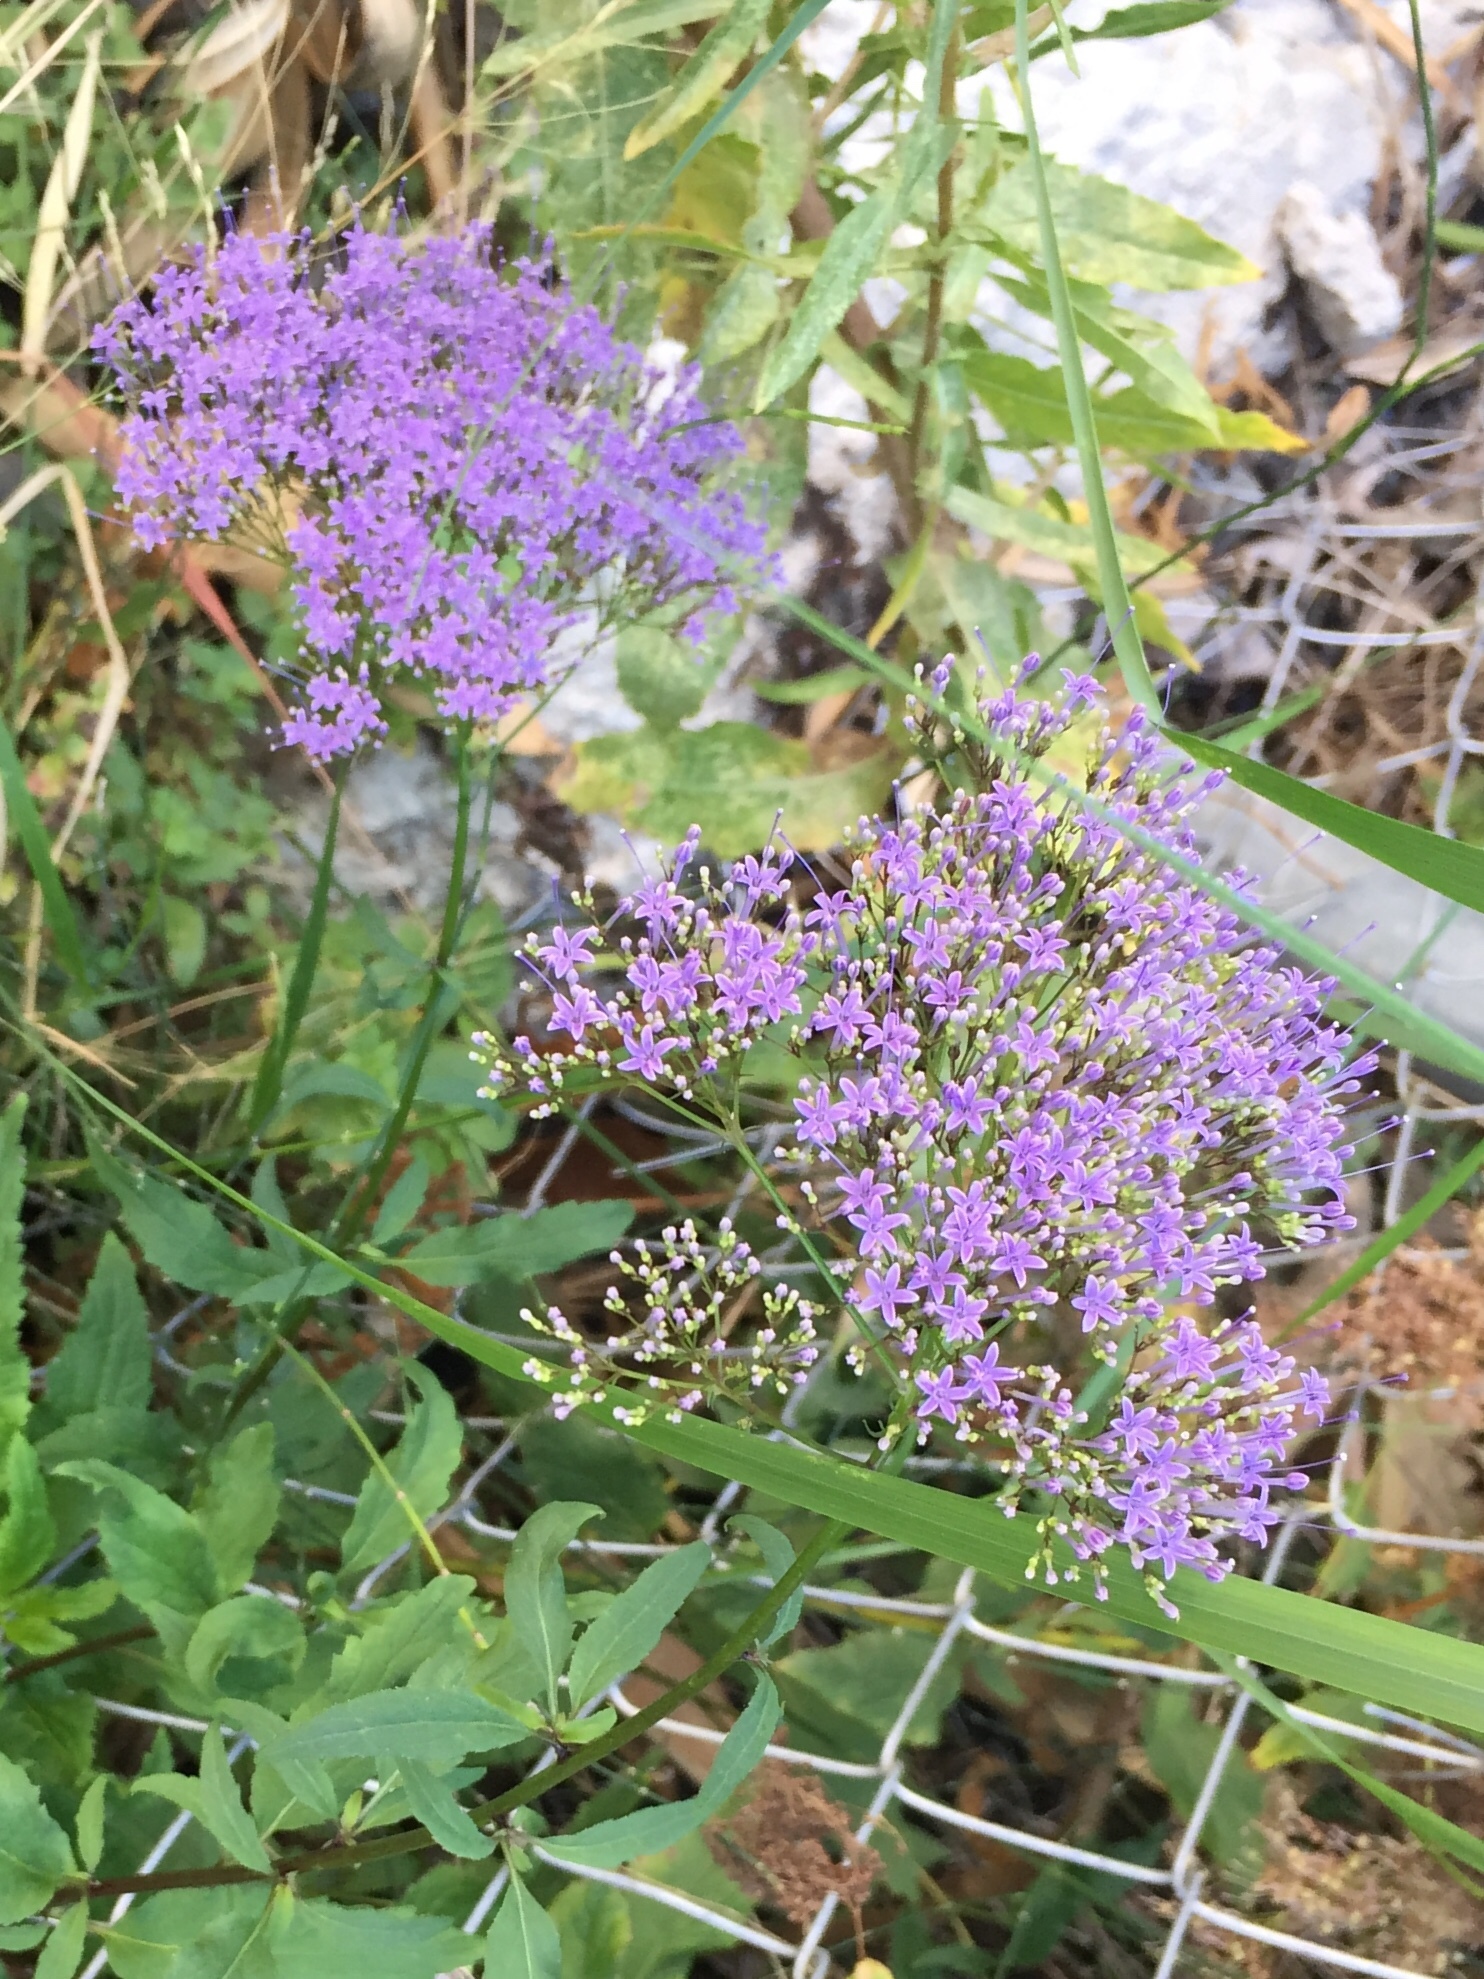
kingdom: Plantae
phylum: Tracheophyta
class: Magnoliopsida
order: Asterales
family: Campanulaceae
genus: Trachelium
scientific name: Trachelium caeruleum
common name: Throatwort
